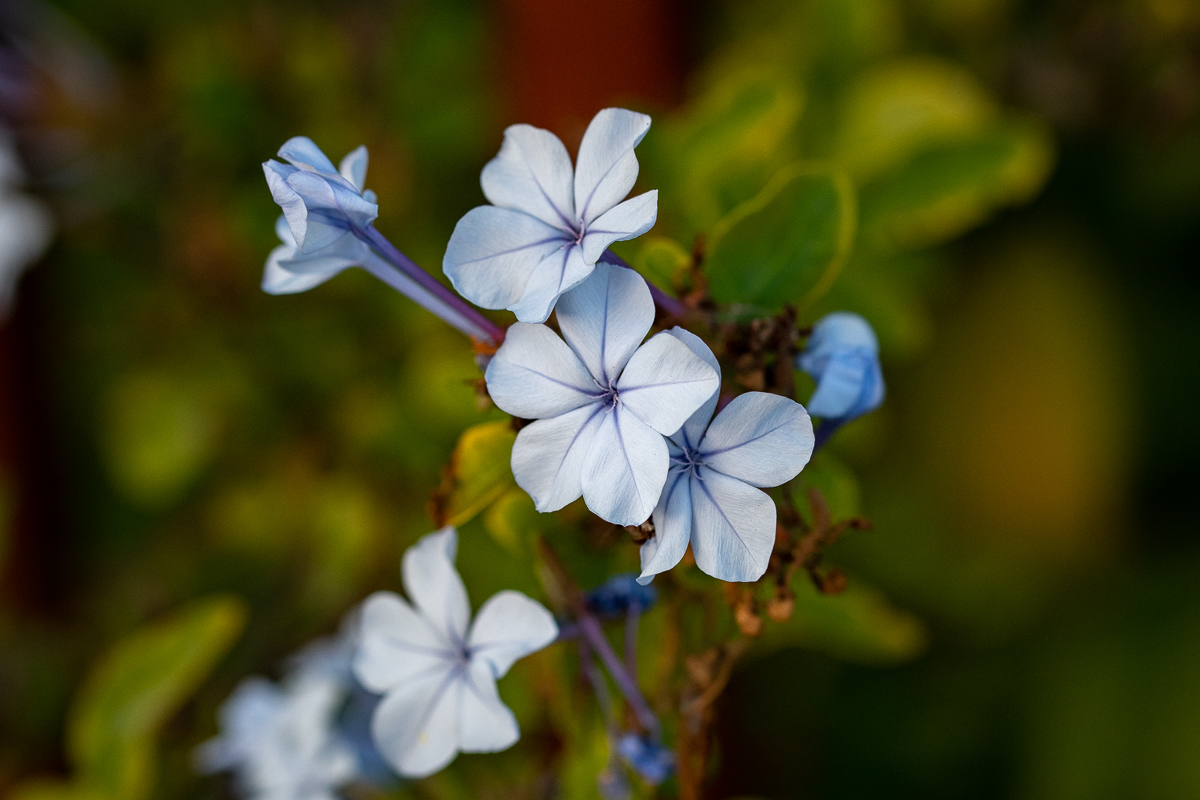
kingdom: Plantae
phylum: Tracheophyta
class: Magnoliopsida
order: Caryophyllales
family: Plumbaginaceae
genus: Plumbago
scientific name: Plumbago auriculata
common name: Cape leadwort
